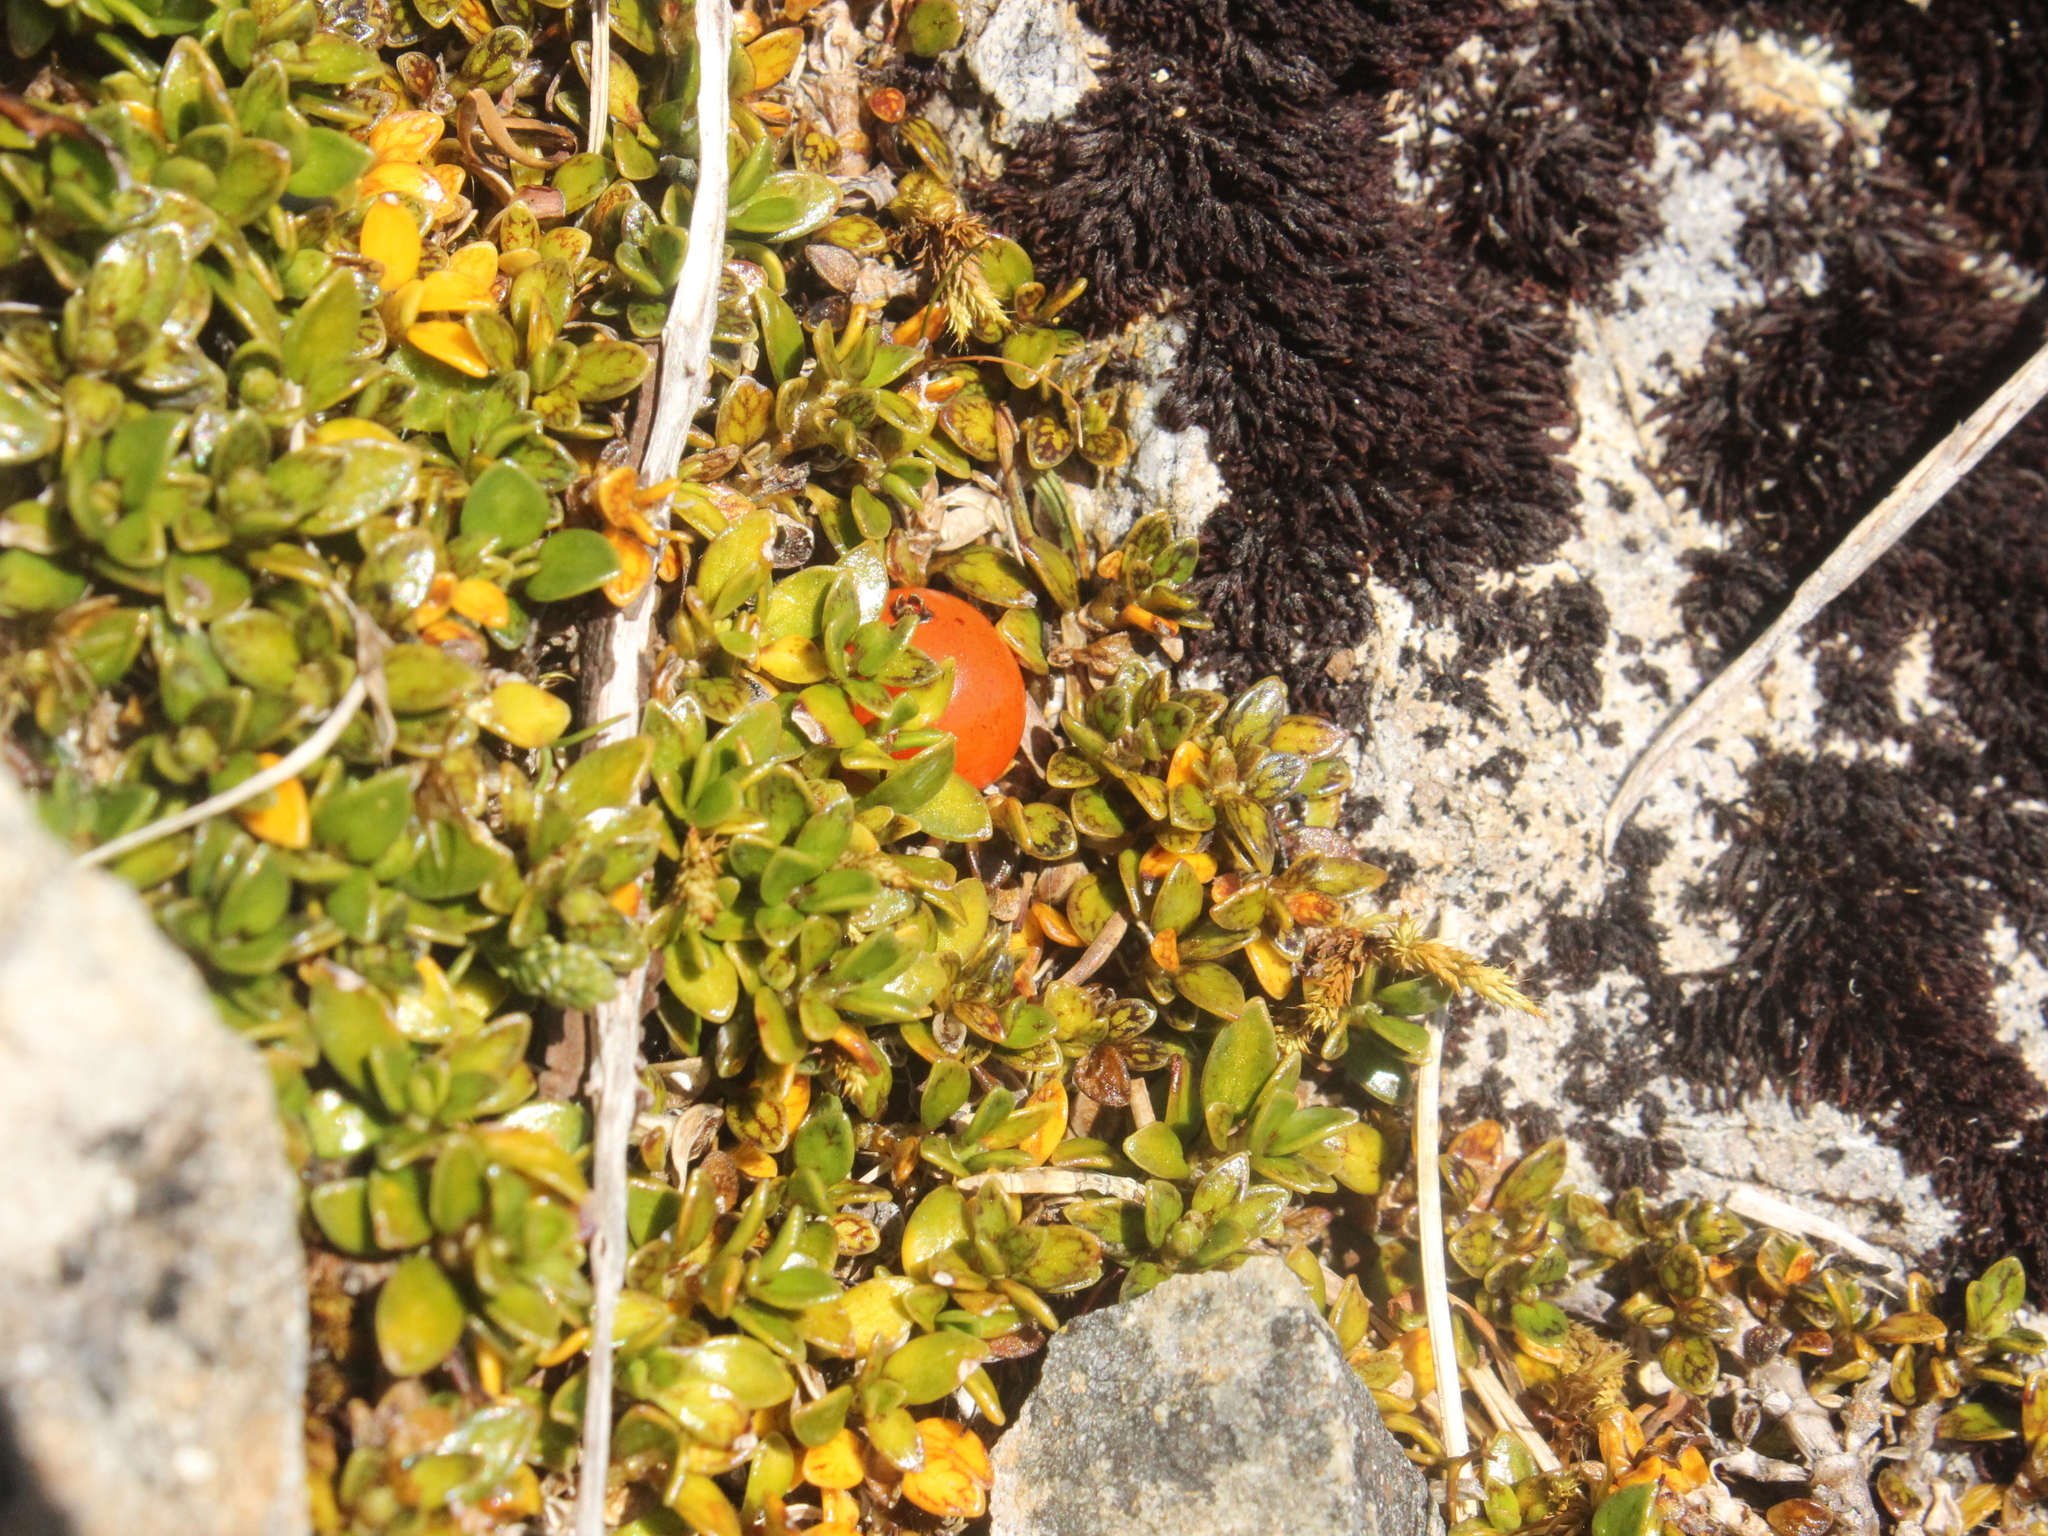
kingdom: Plantae
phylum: Tracheophyta
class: Magnoliopsida
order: Gentianales
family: Rubiaceae
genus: Coprosma
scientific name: Coprosma perpusilla
